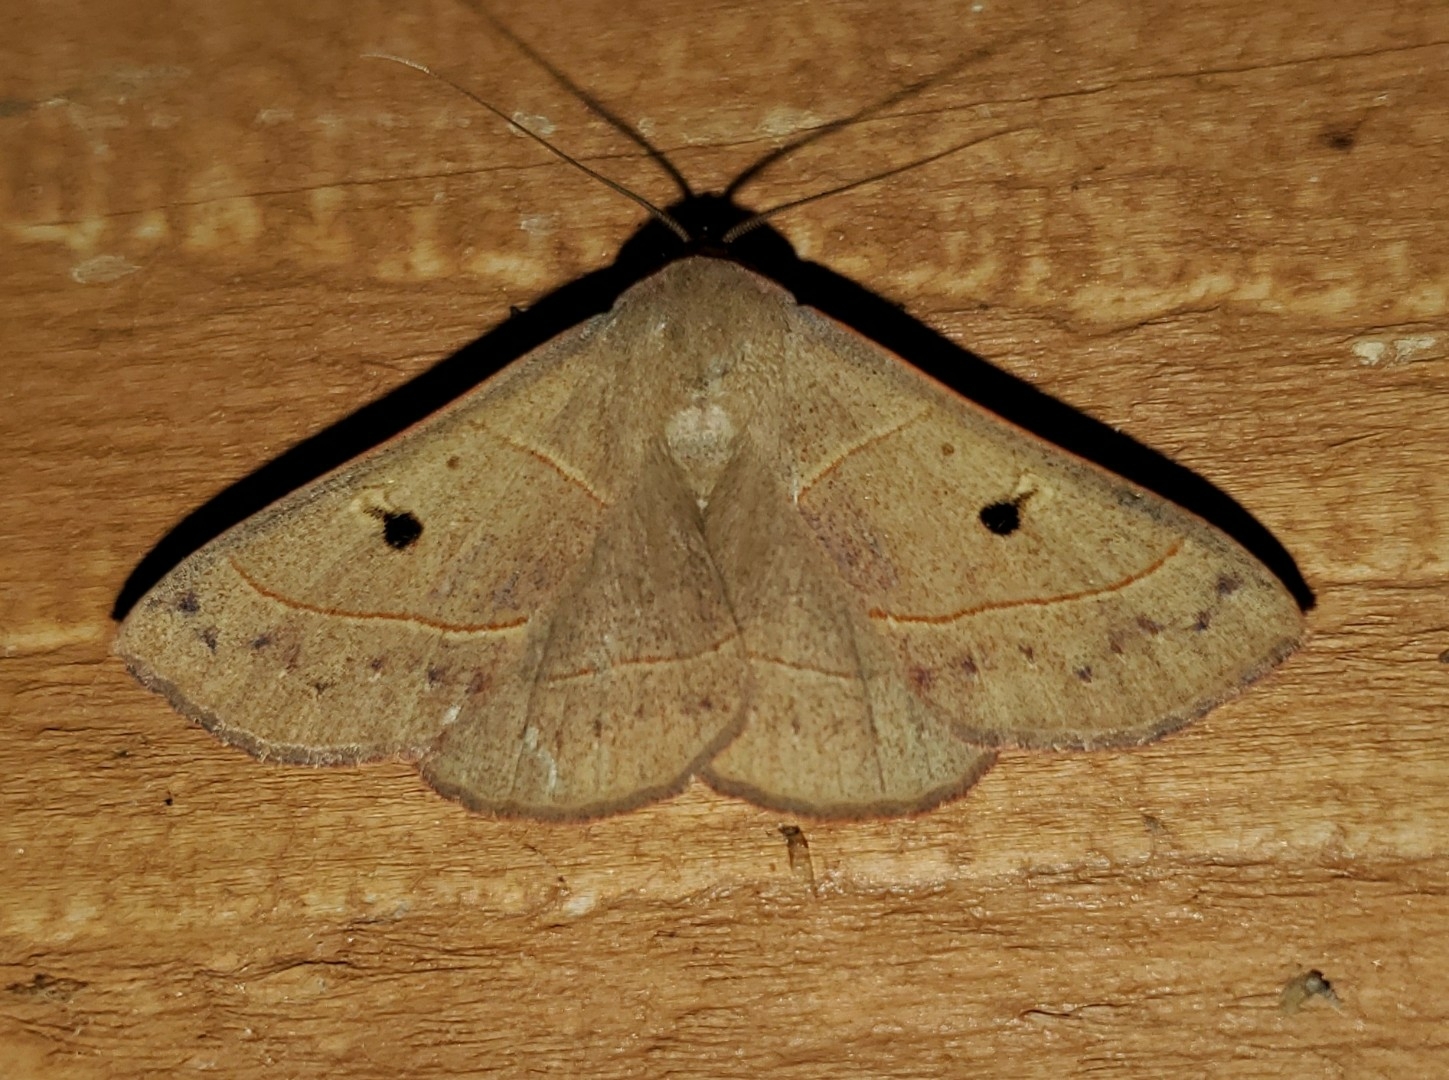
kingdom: Animalia
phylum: Arthropoda
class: Insecta
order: Lepidoptera
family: Erebidae
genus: Panopoda
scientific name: Panopoda rufimargo
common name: Red-lined panopoda moth
